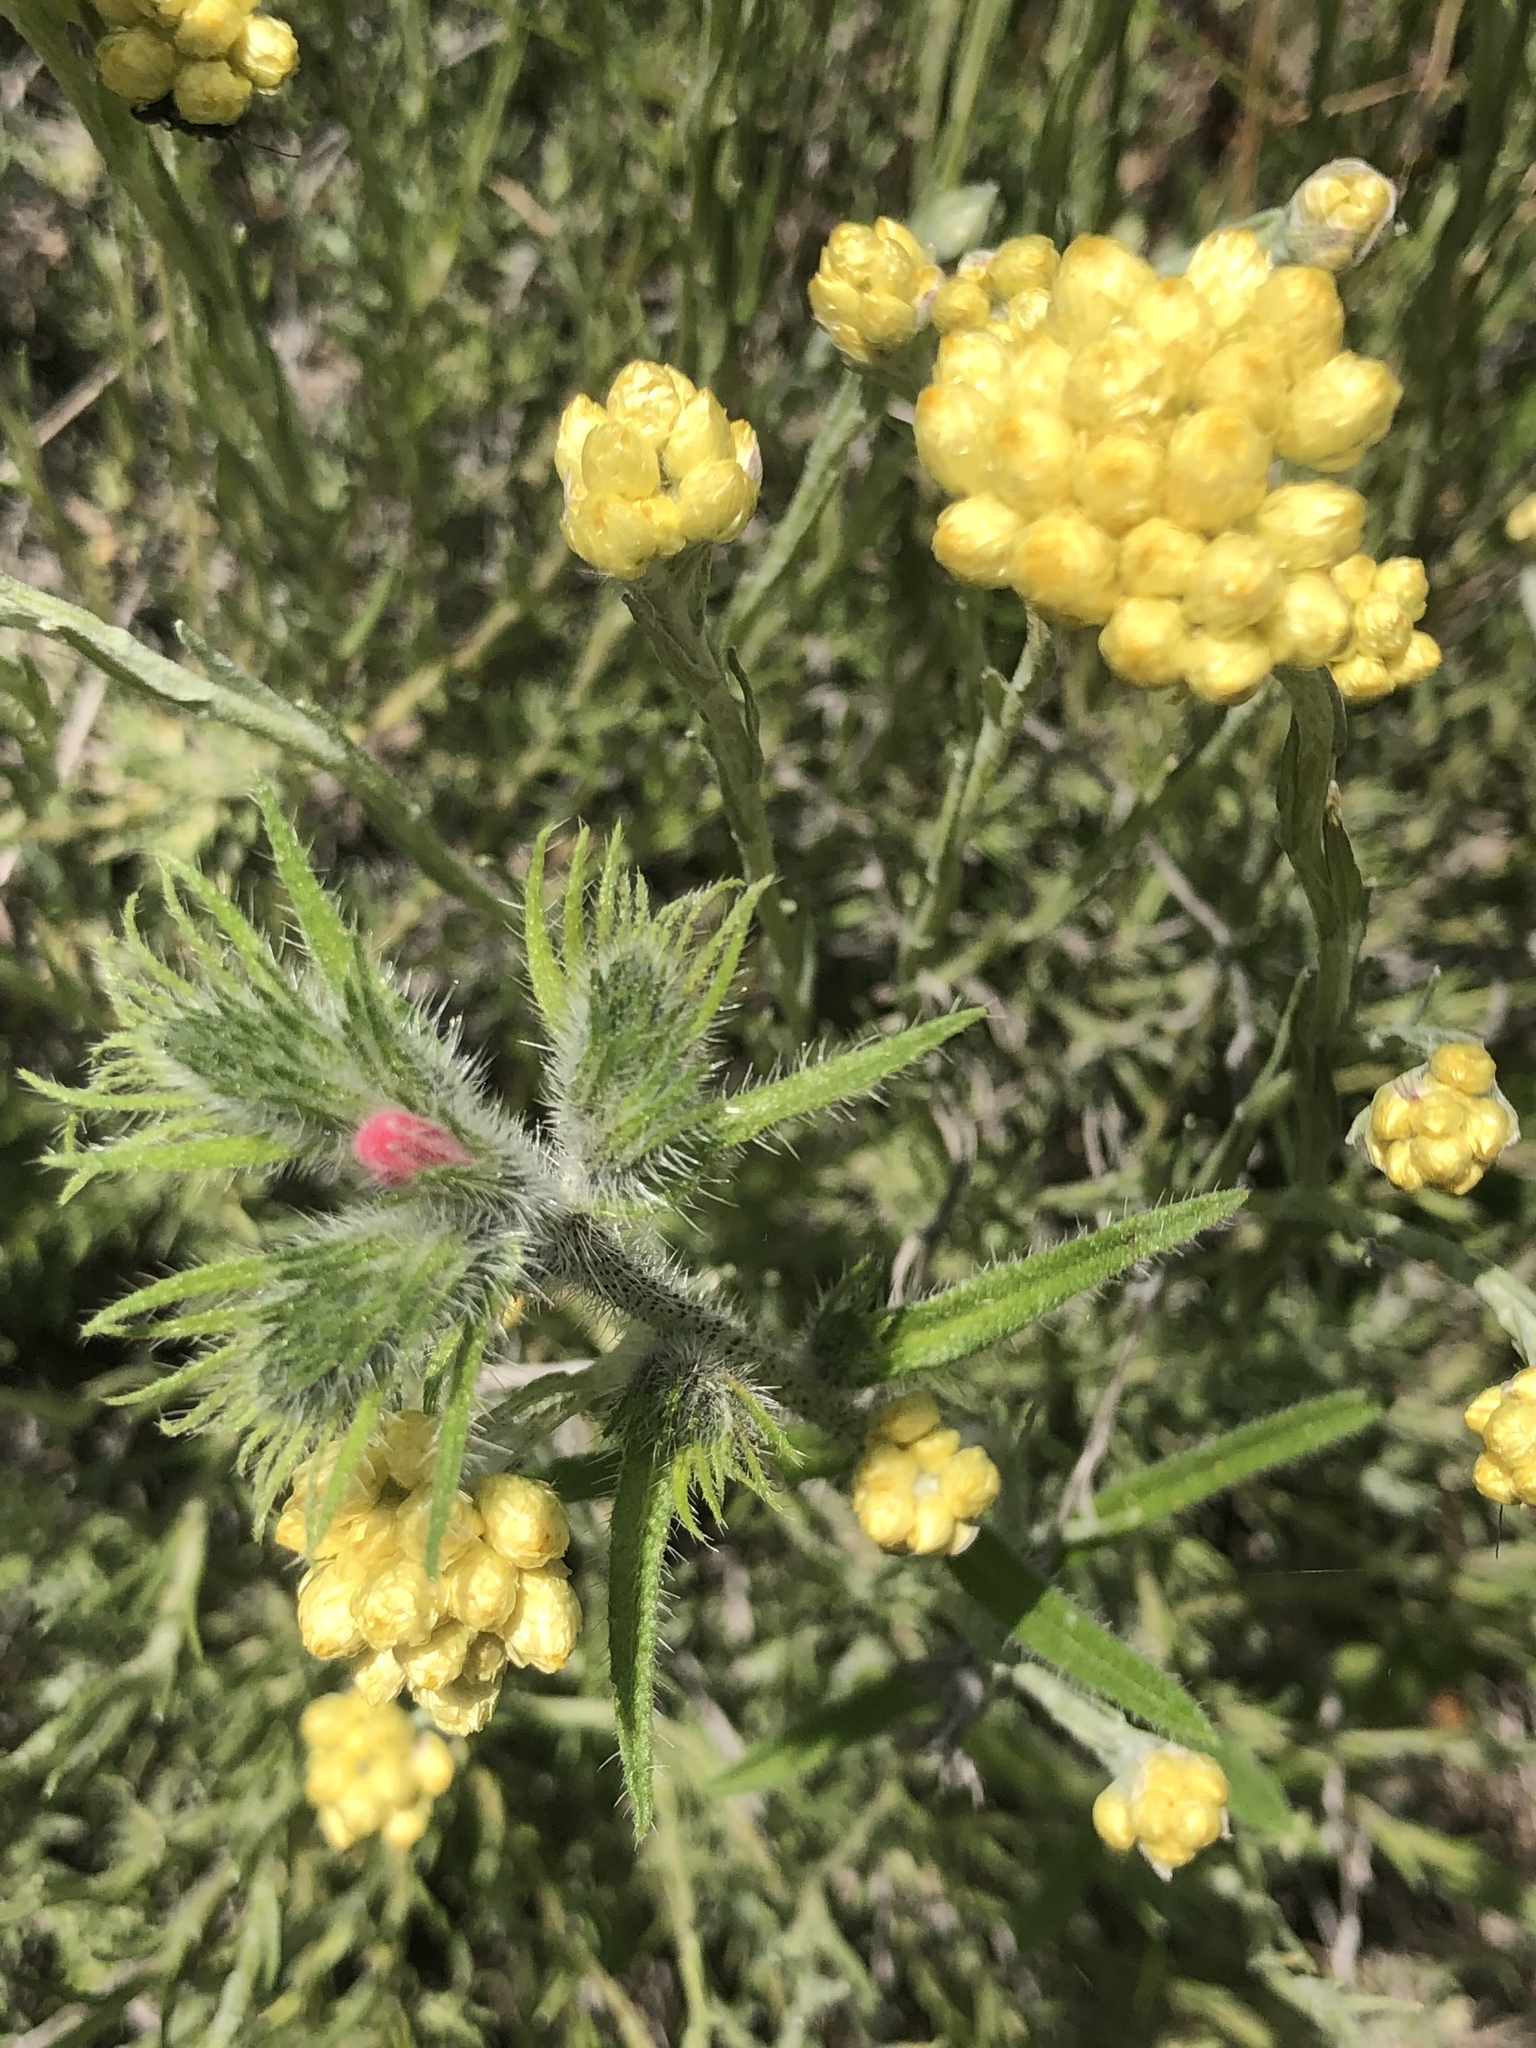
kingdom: Plantae
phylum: Tracheophyta
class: Magnoliopsida
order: Asterales
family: Asteraceae
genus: Helichrysum
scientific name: Helichrysum stoechas
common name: Goldilocks
